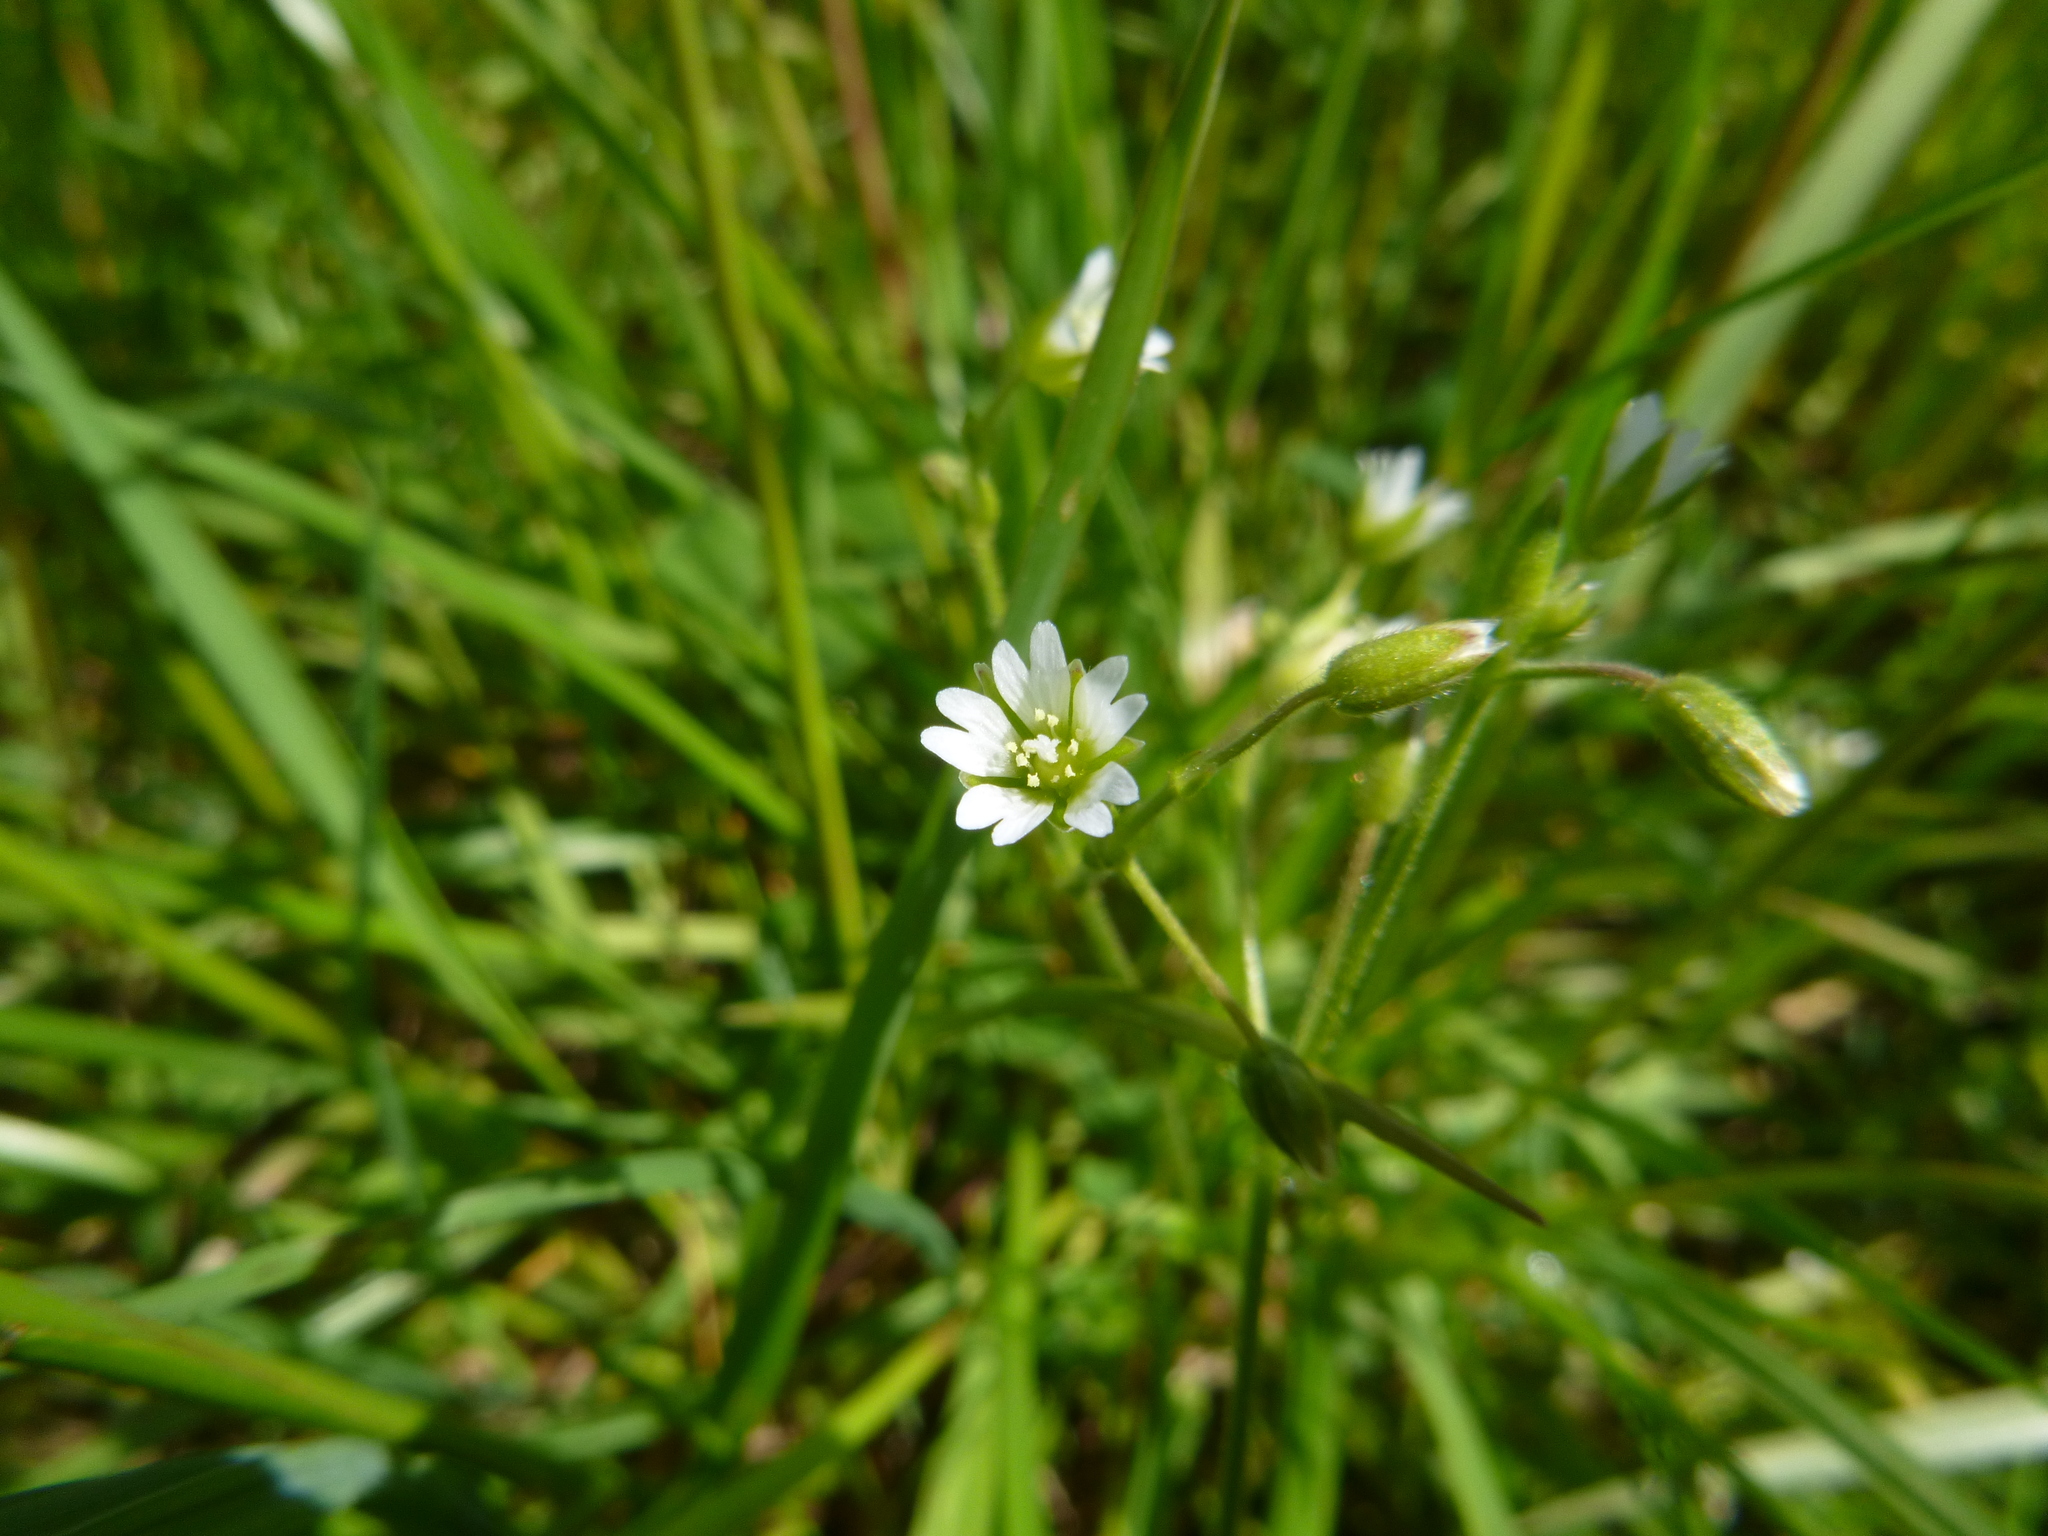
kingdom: Plantae
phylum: Tracheophyta
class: Magnoliopsida
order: Caryophyllales
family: Caryophyllaceae
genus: Cerastium
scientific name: Cerastium fontanum
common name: Common mouse-ear
